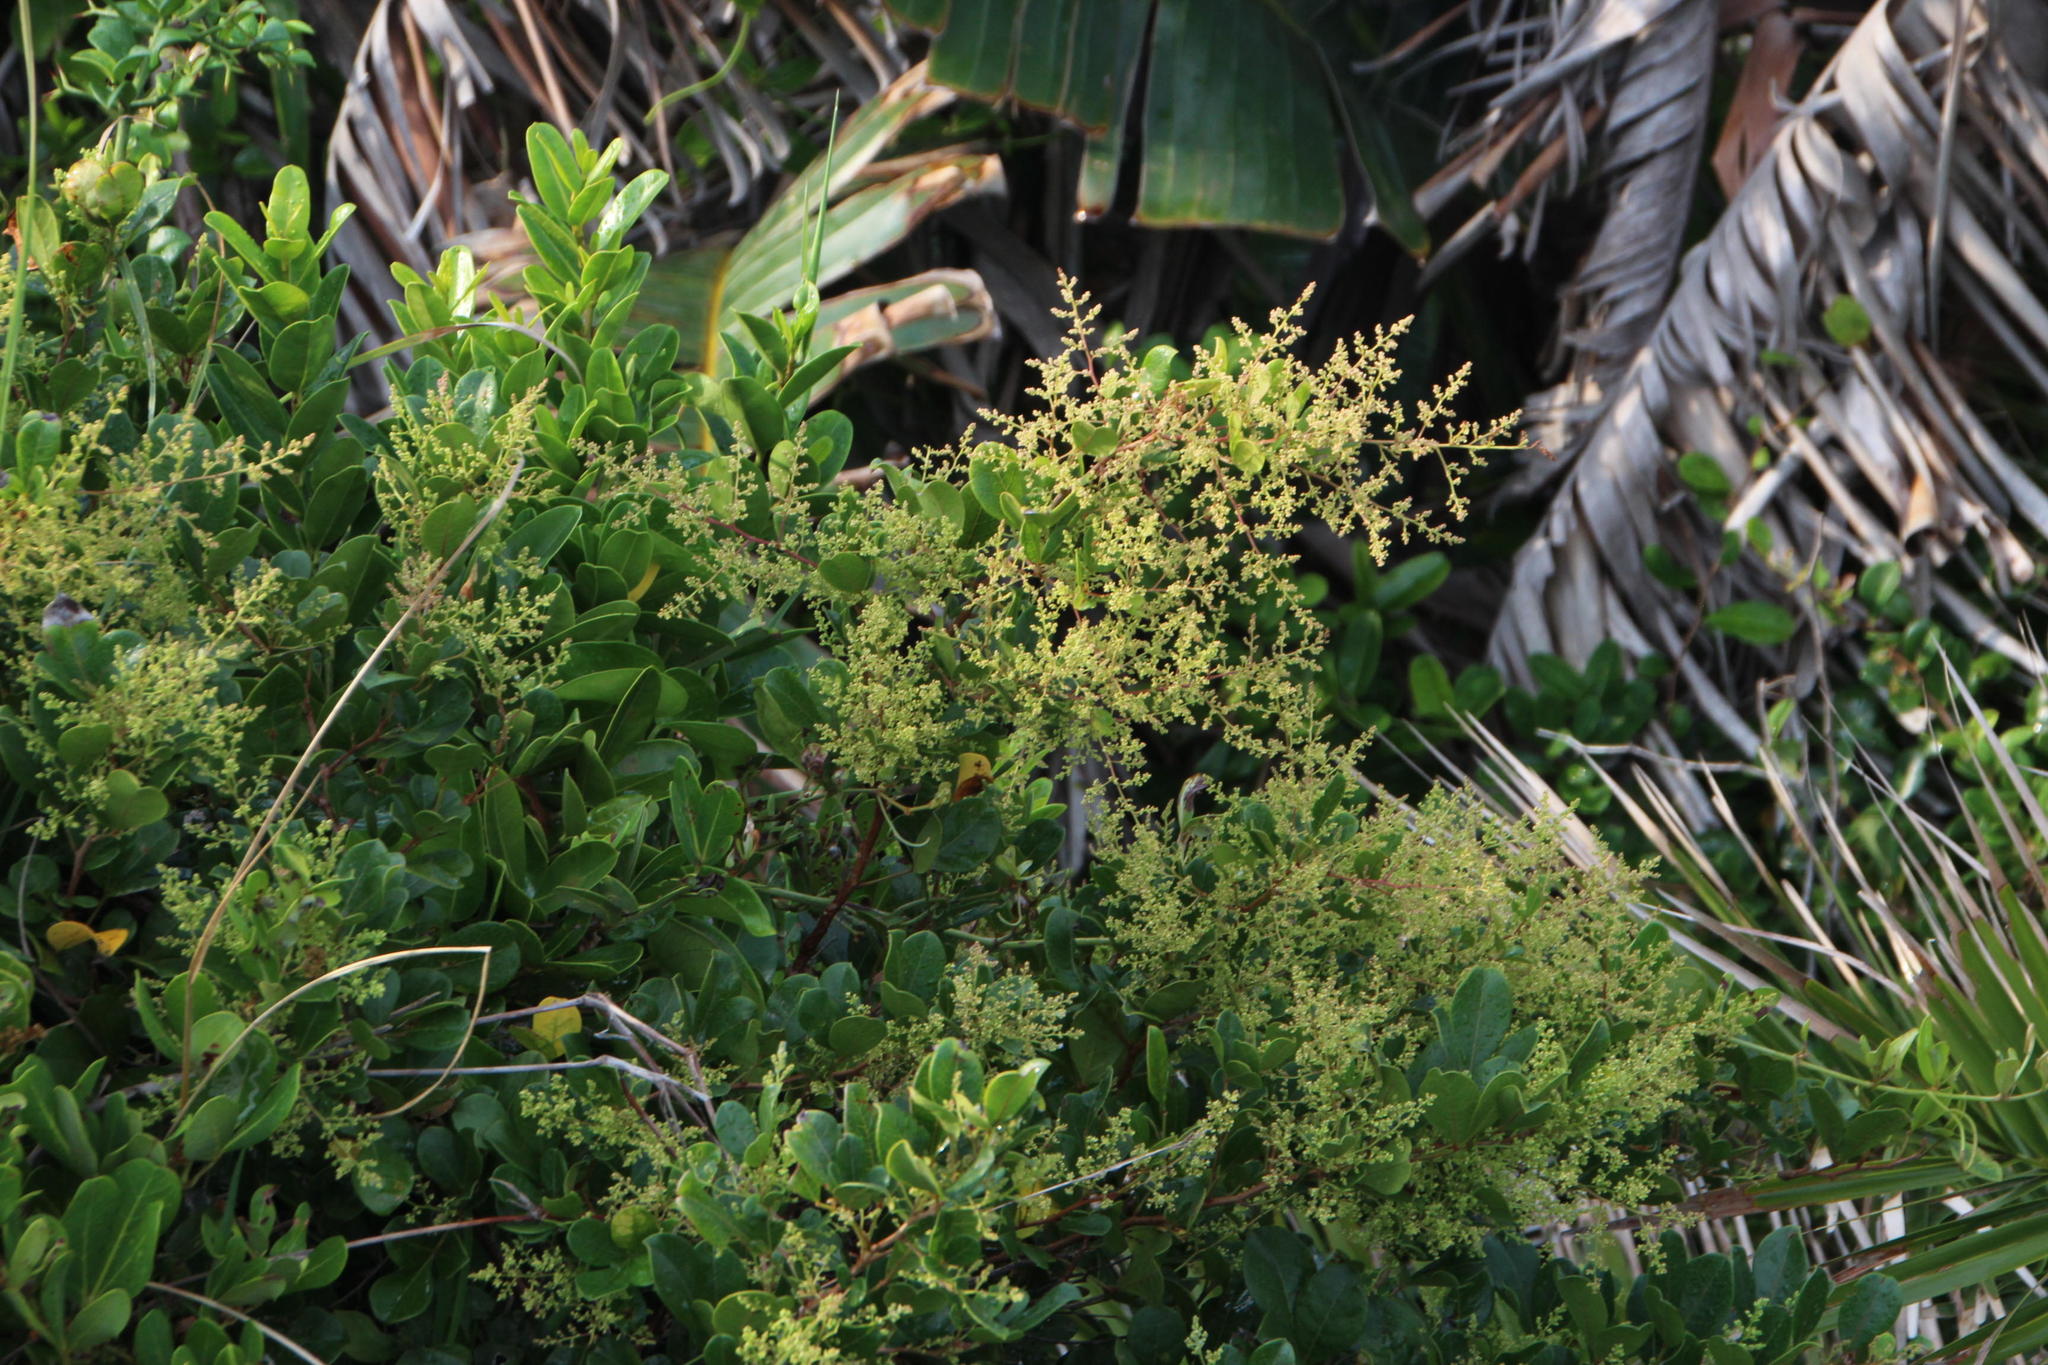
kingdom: Plantae
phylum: Tracheophyta
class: Magnoliopsida
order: Sapindales
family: Anacardiaceae
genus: Searsia
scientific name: Searsia nebulosa
